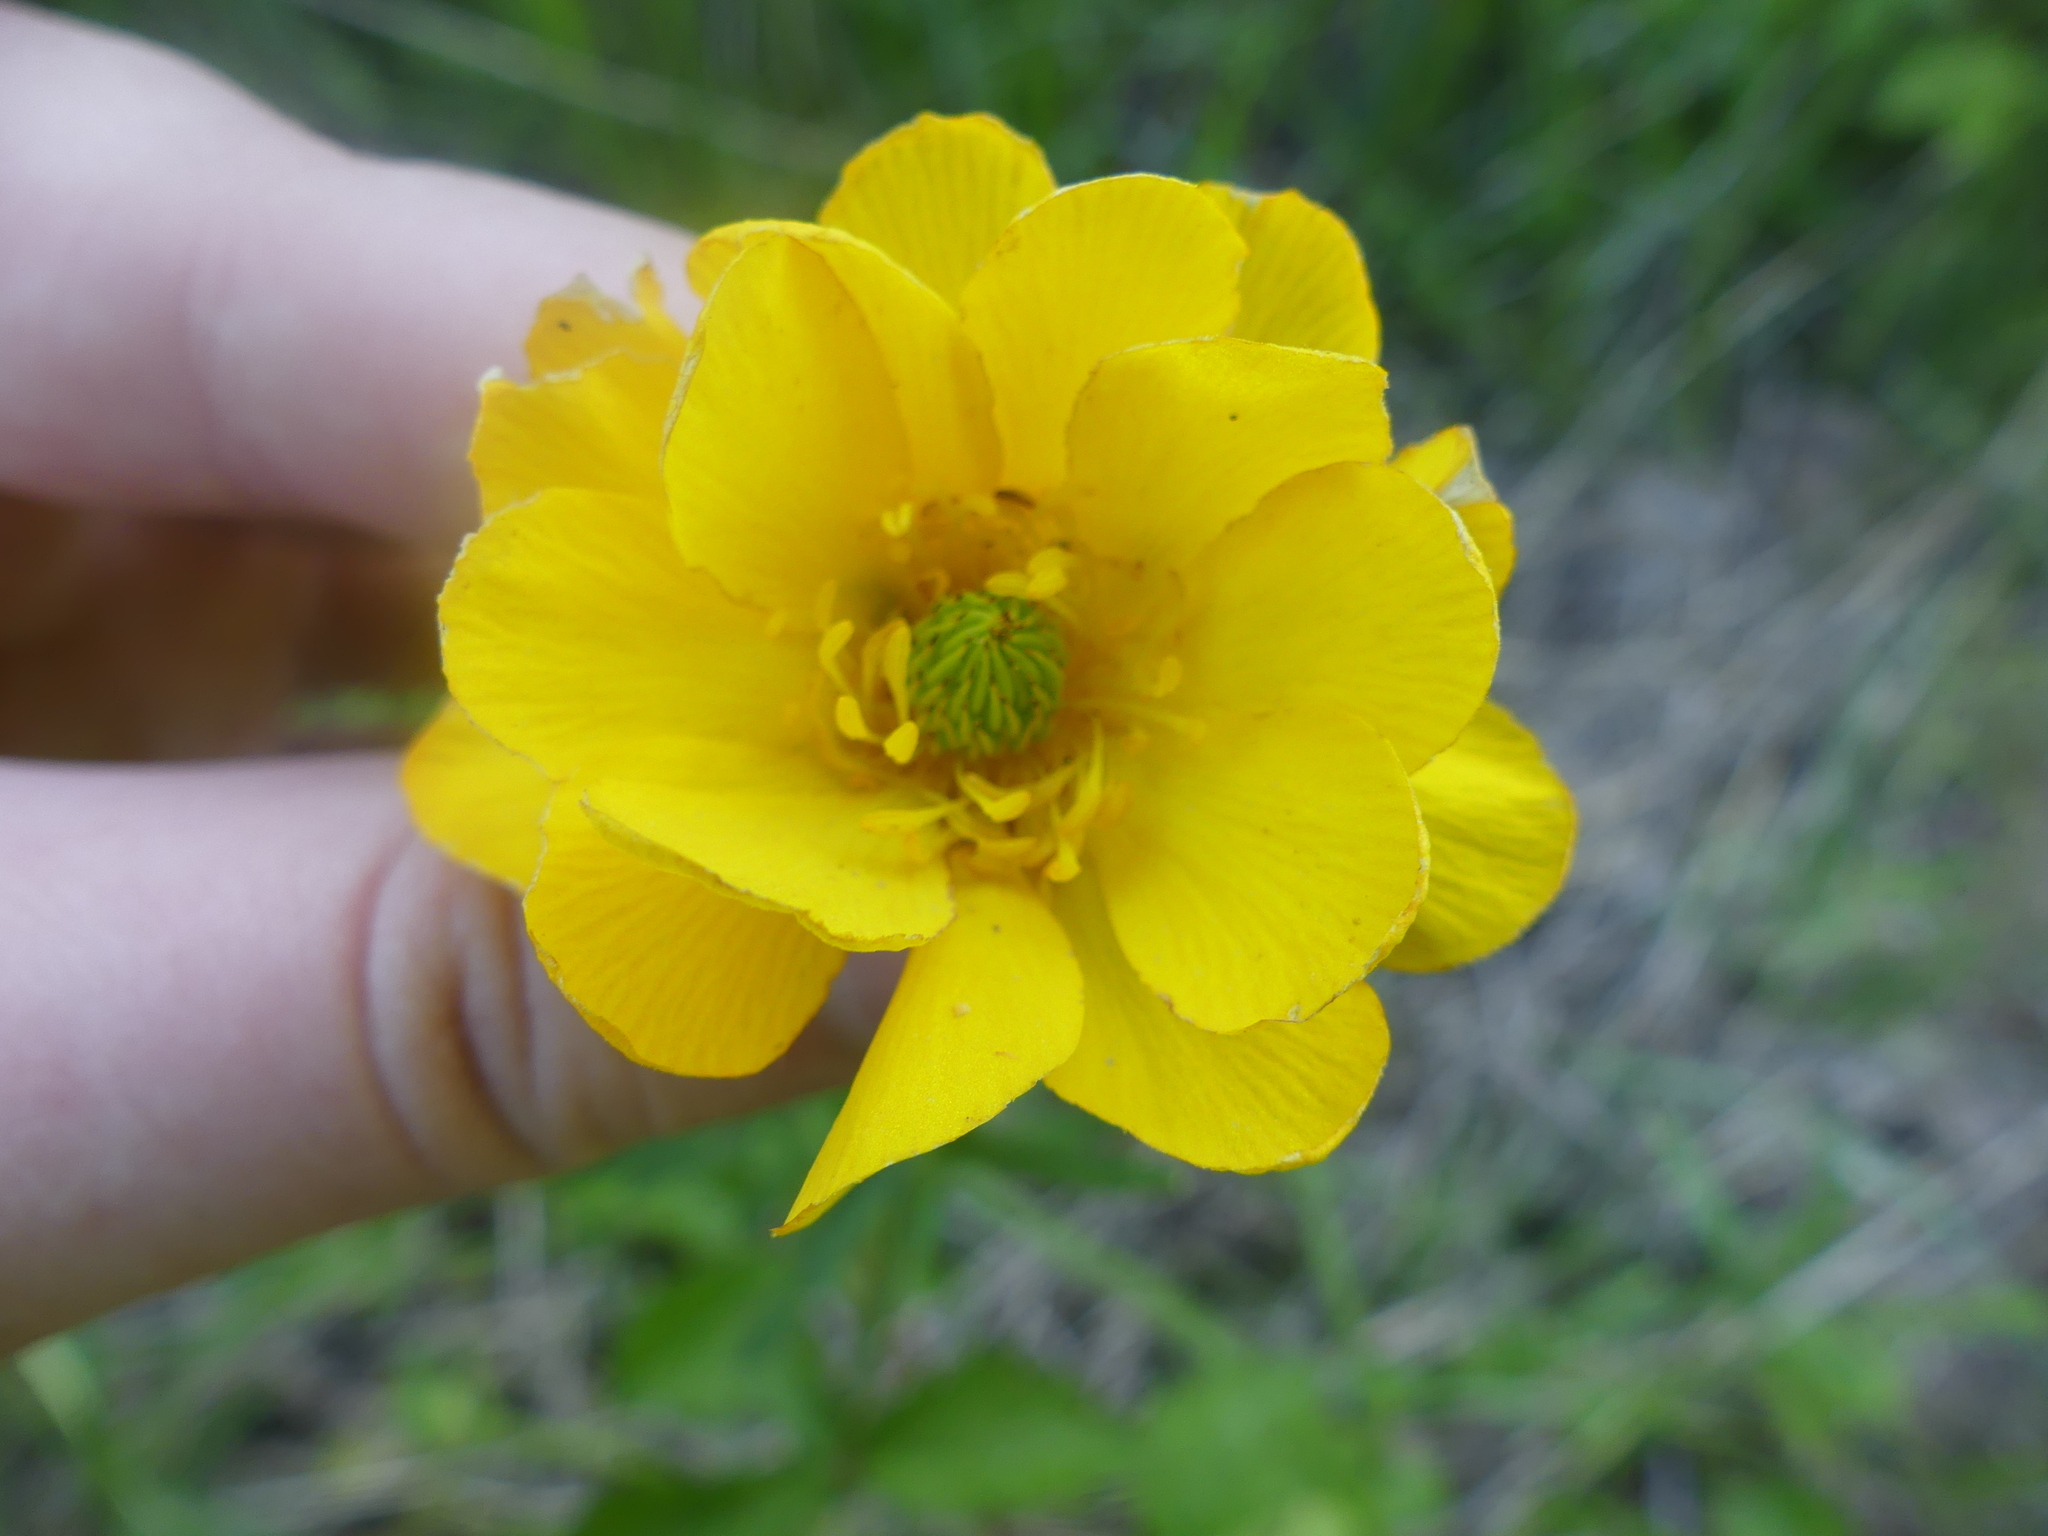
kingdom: Plantae
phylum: Tracheophyta
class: Magnoliopsida
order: Ranunculales
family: Ranunculaceae
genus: Ranunculus
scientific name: Ranunculus macranthus
